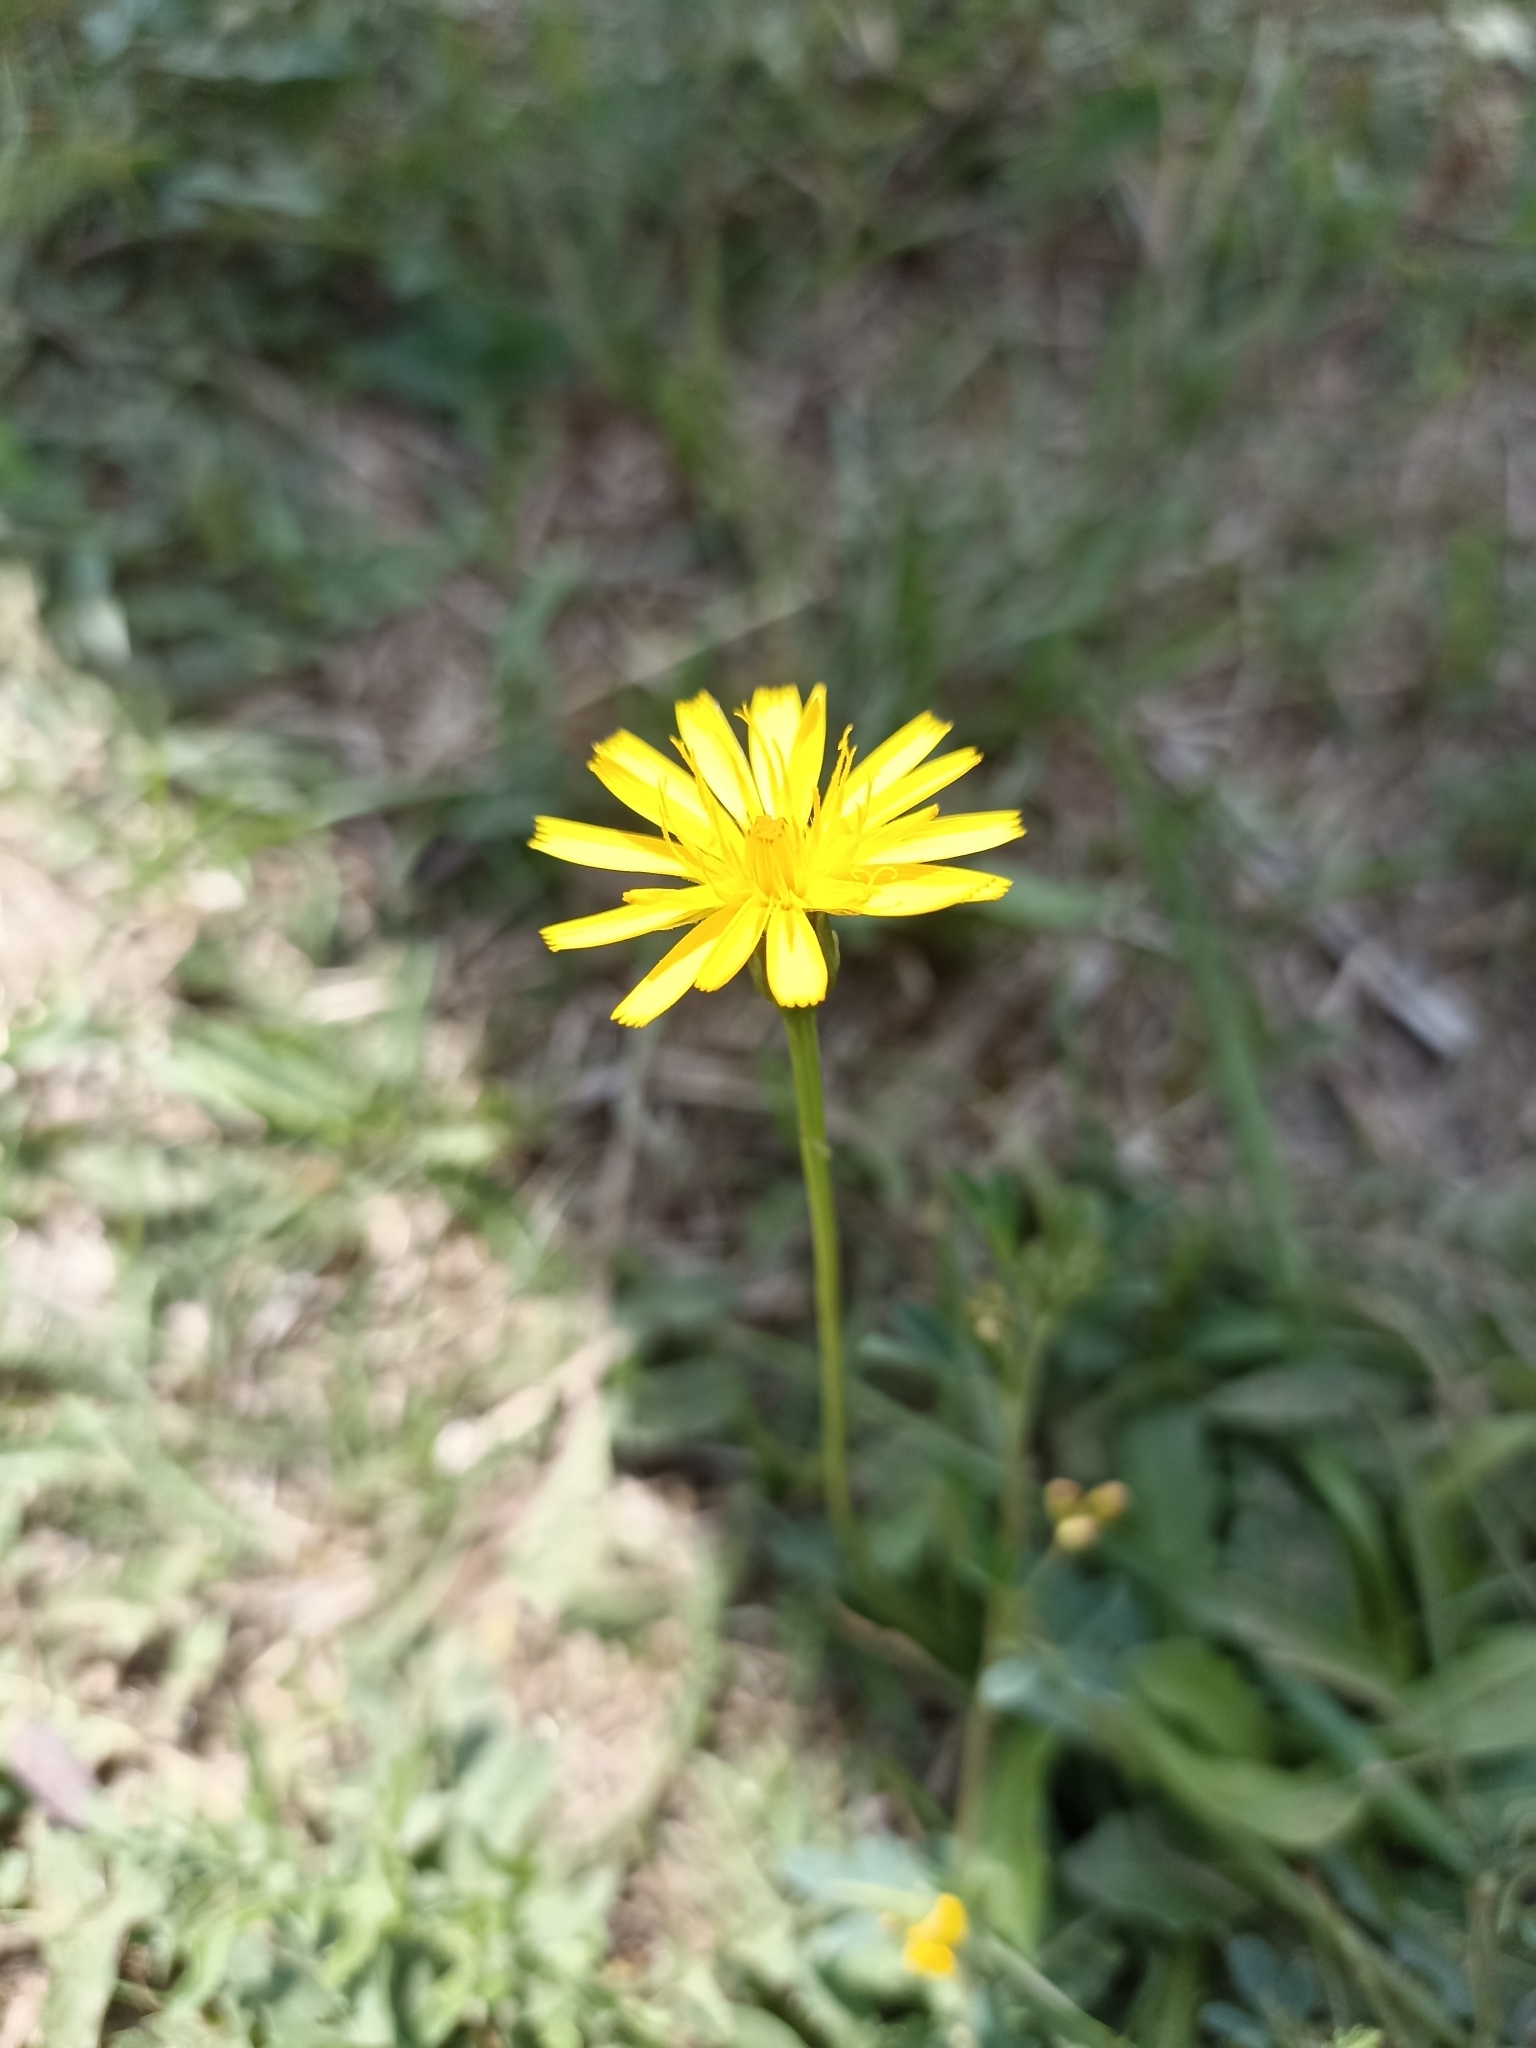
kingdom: Plantae
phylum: Tracheophyta
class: Magnoliopsida
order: Asterales
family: Asteraceae
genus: Scorzoneroides
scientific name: Scorzoneroides autumnalis
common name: Autumn hawkbit
